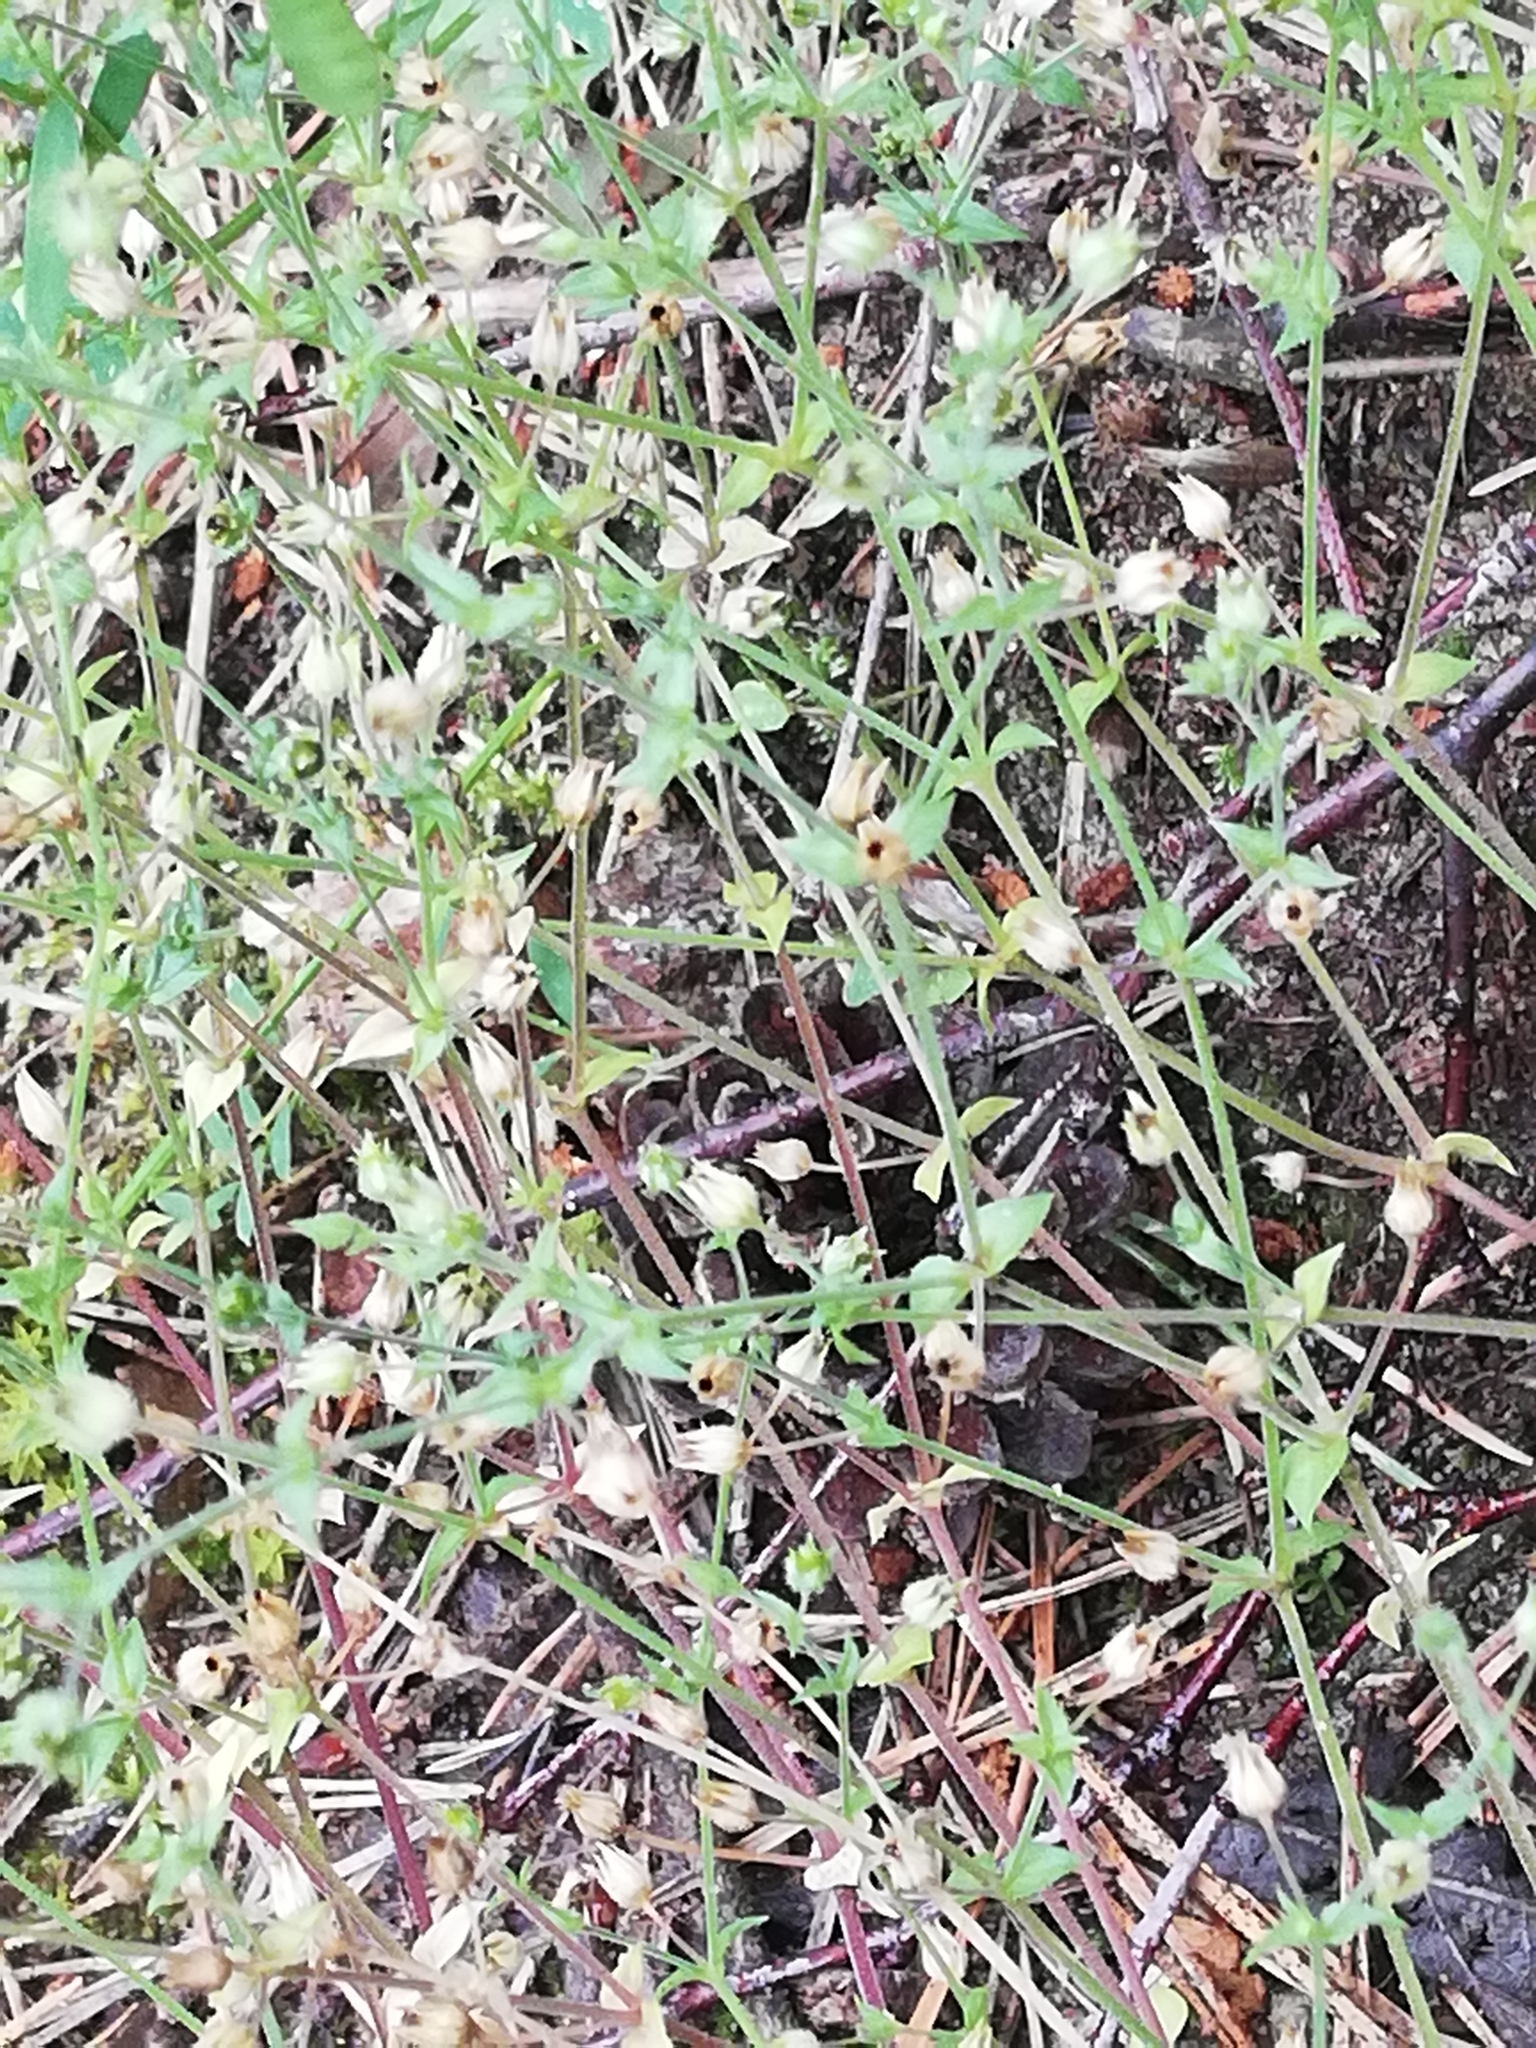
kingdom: Plantae
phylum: Tracheophyta
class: Magnoliopsida
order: Caryophyllales
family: Caryophyllaceae
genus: Arenaria
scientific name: Arenaria serpyllifolia
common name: Thyme-leaved sandwort
